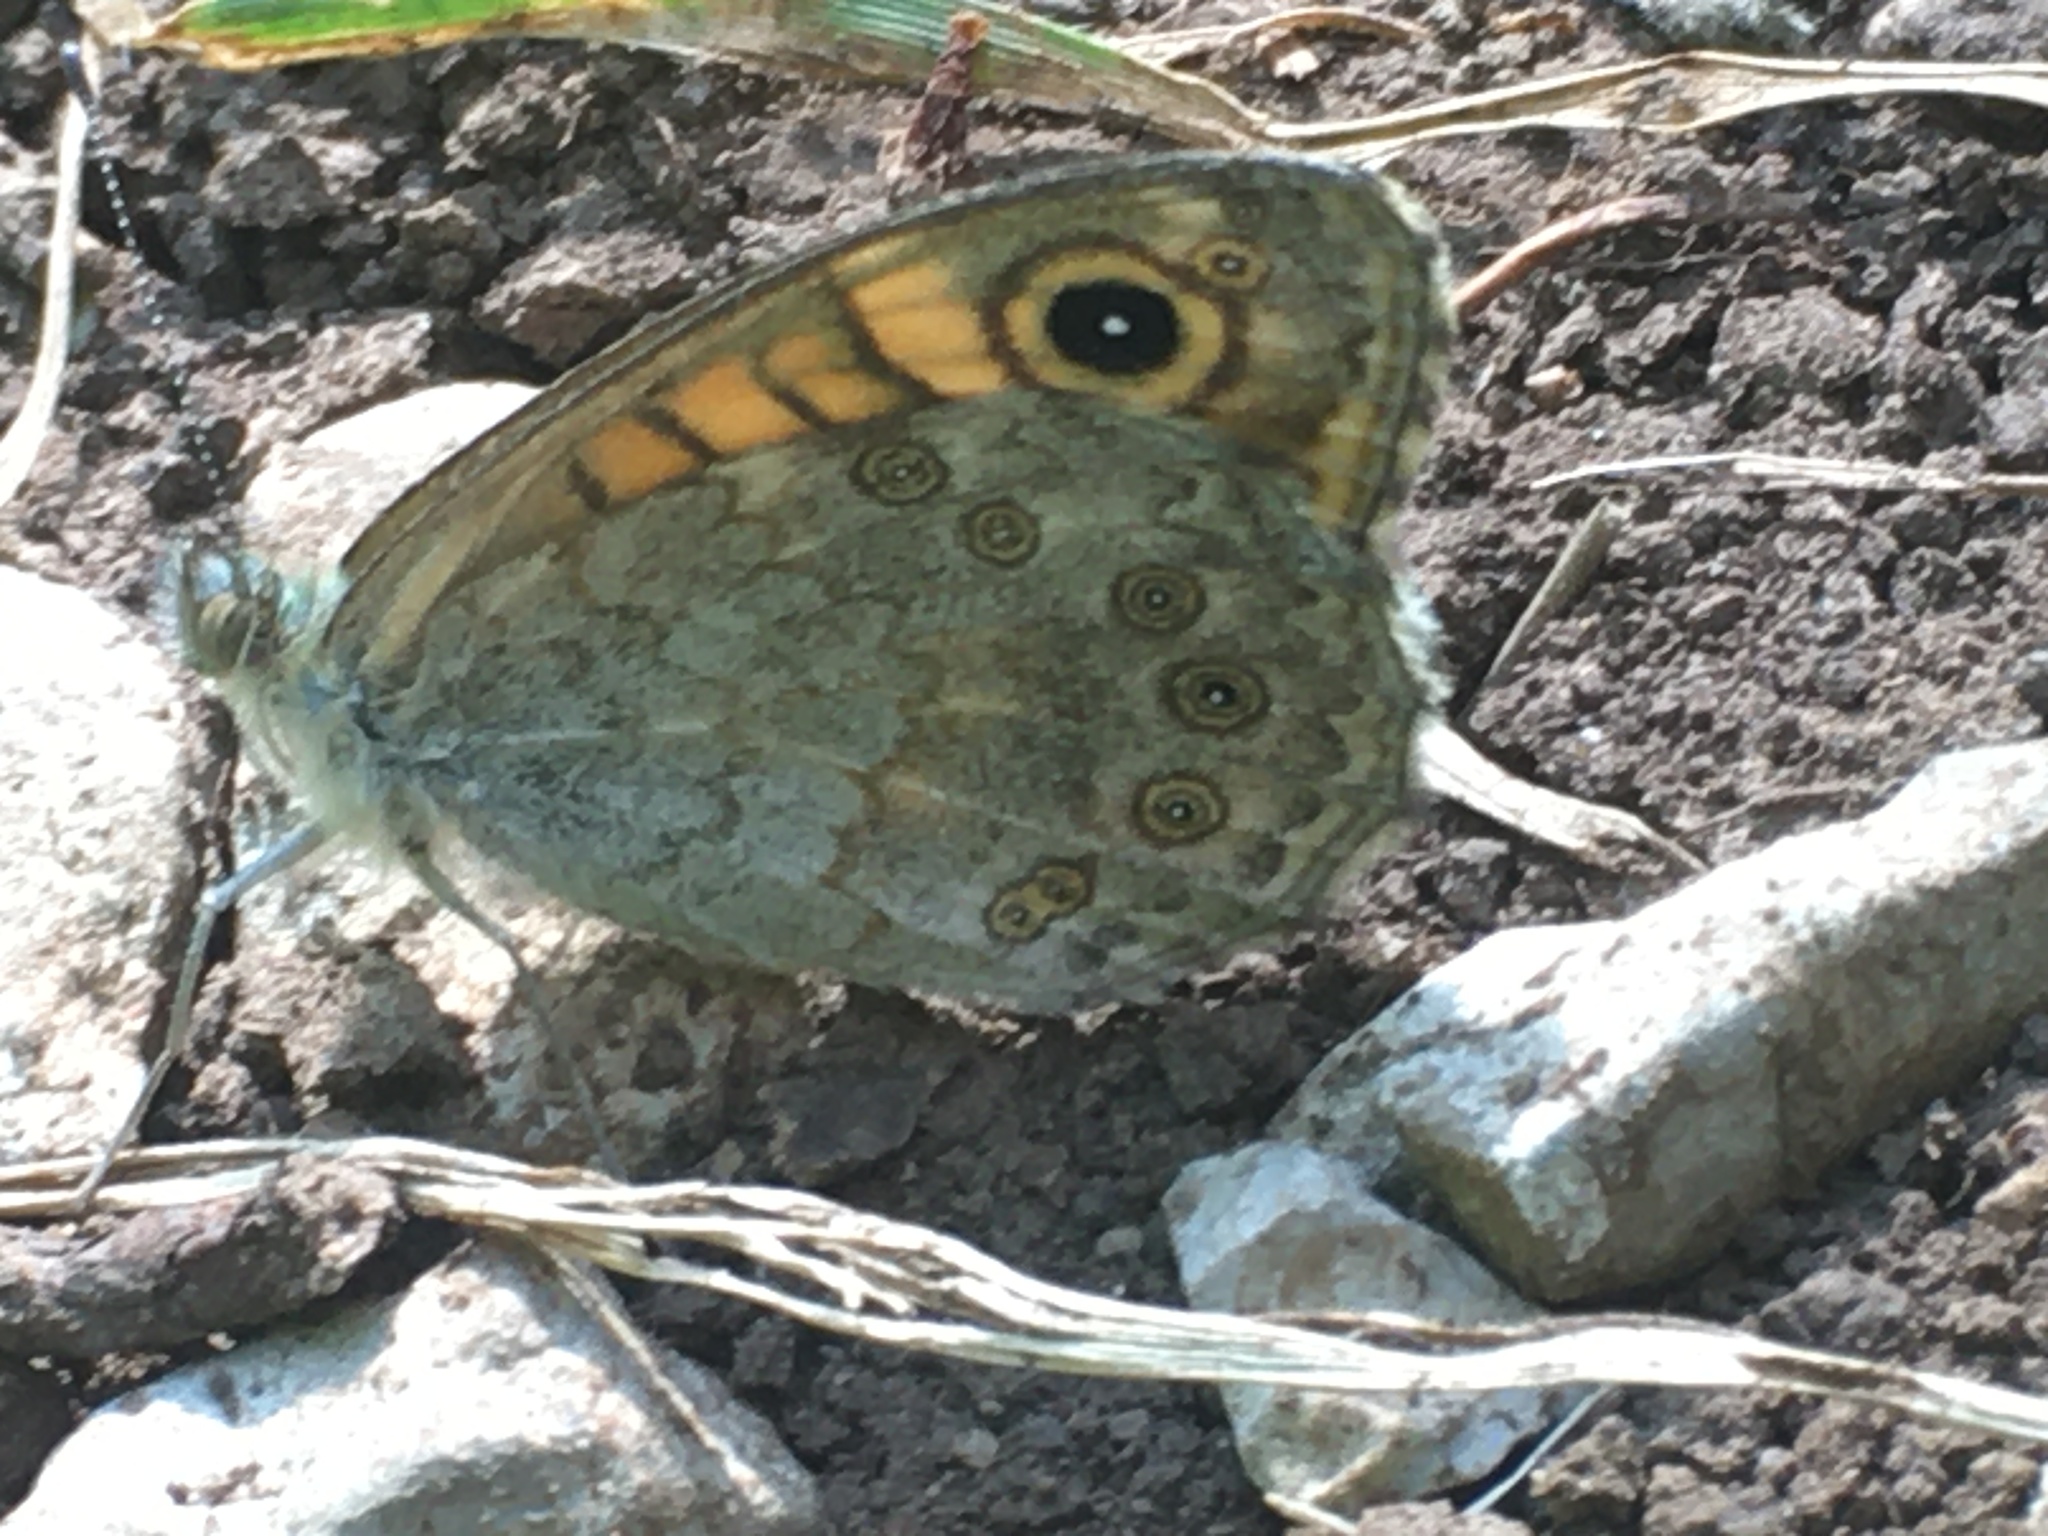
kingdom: Animalia
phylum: Arthropoda
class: Insecta
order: Lepidoptera
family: Nymphalidae
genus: Pararge
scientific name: Pararge Lasiommata megera
